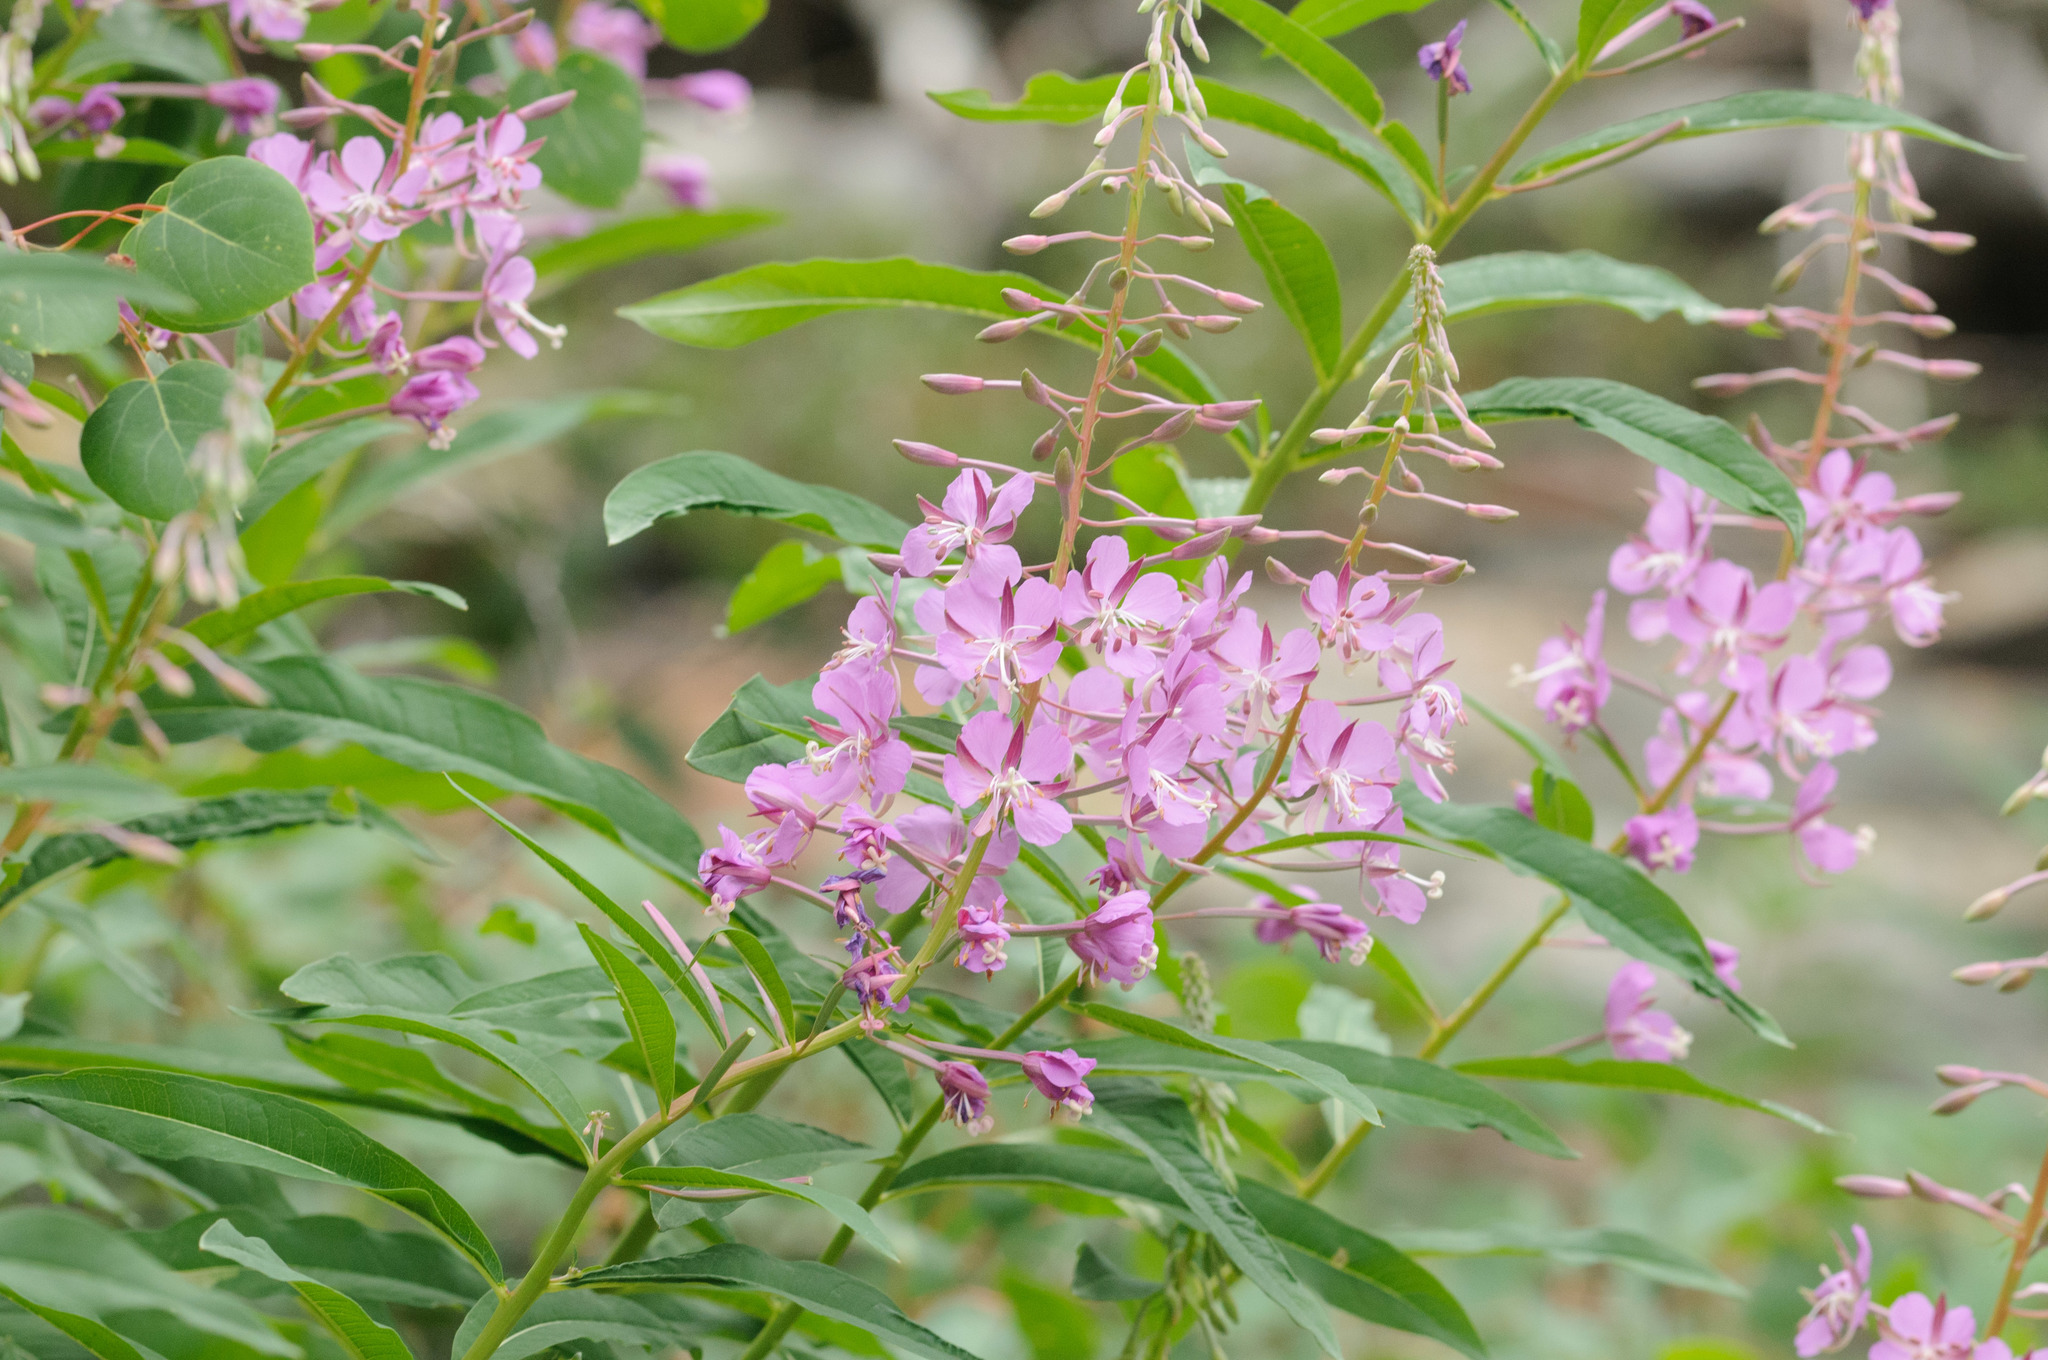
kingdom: Plantae
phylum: Tracheophyta
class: Magnoliopsida
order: Myrtales
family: Onagraceae
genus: Chamaenerion
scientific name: Chamaenerion angustifolium
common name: Fireweed
